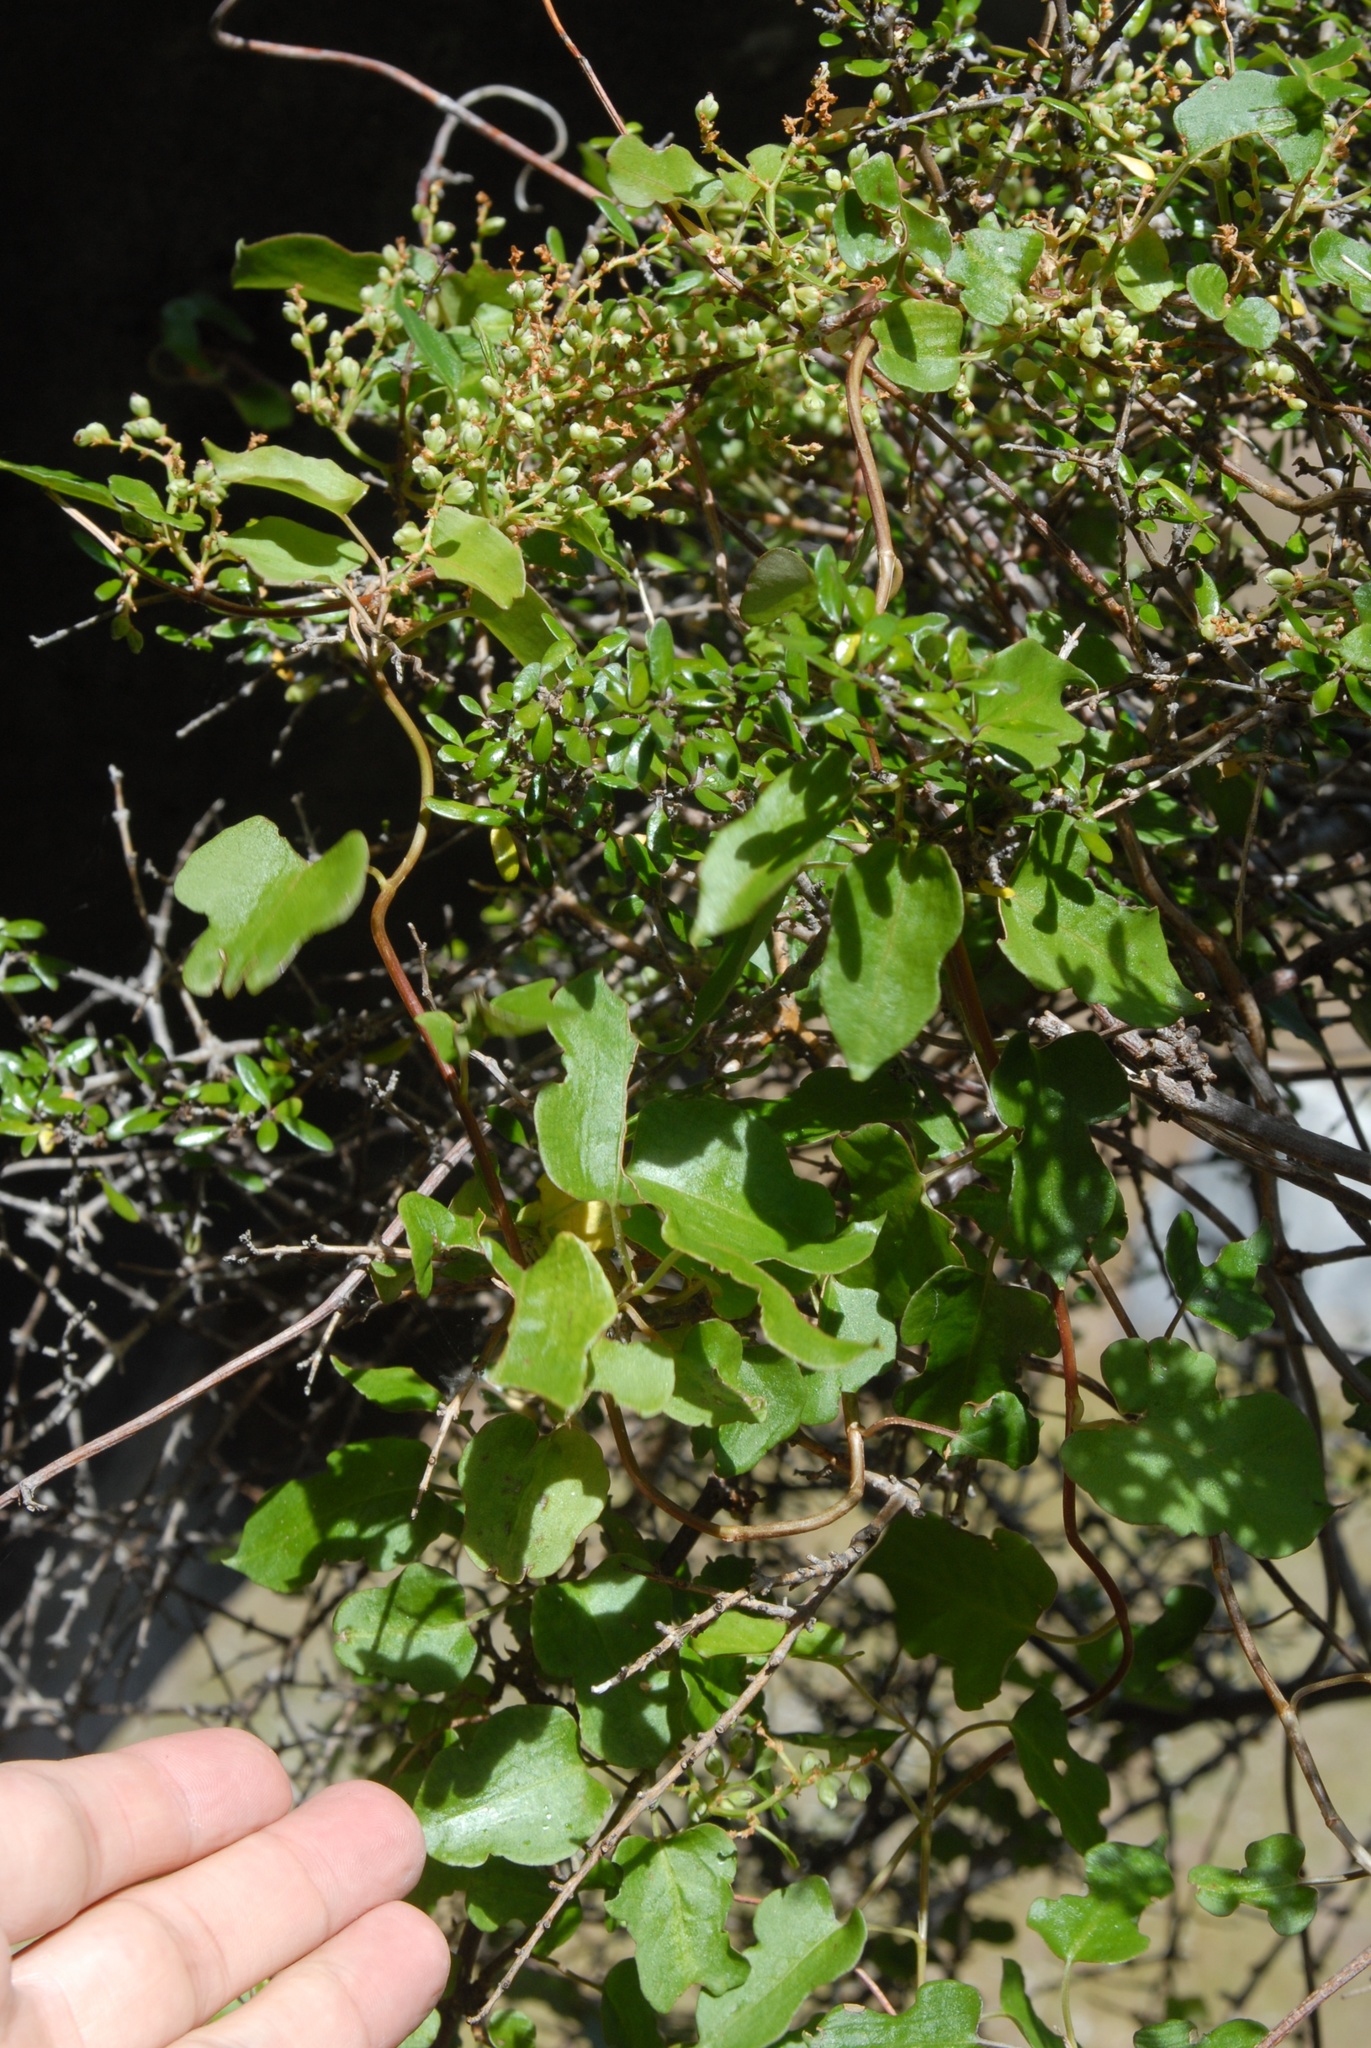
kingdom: Plantae
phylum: Tracheophyta
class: Magnoliopsida
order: Caryophyllales
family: Polygonaceae
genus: Muehlenbeckia
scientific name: Muehlenbeckia australis
